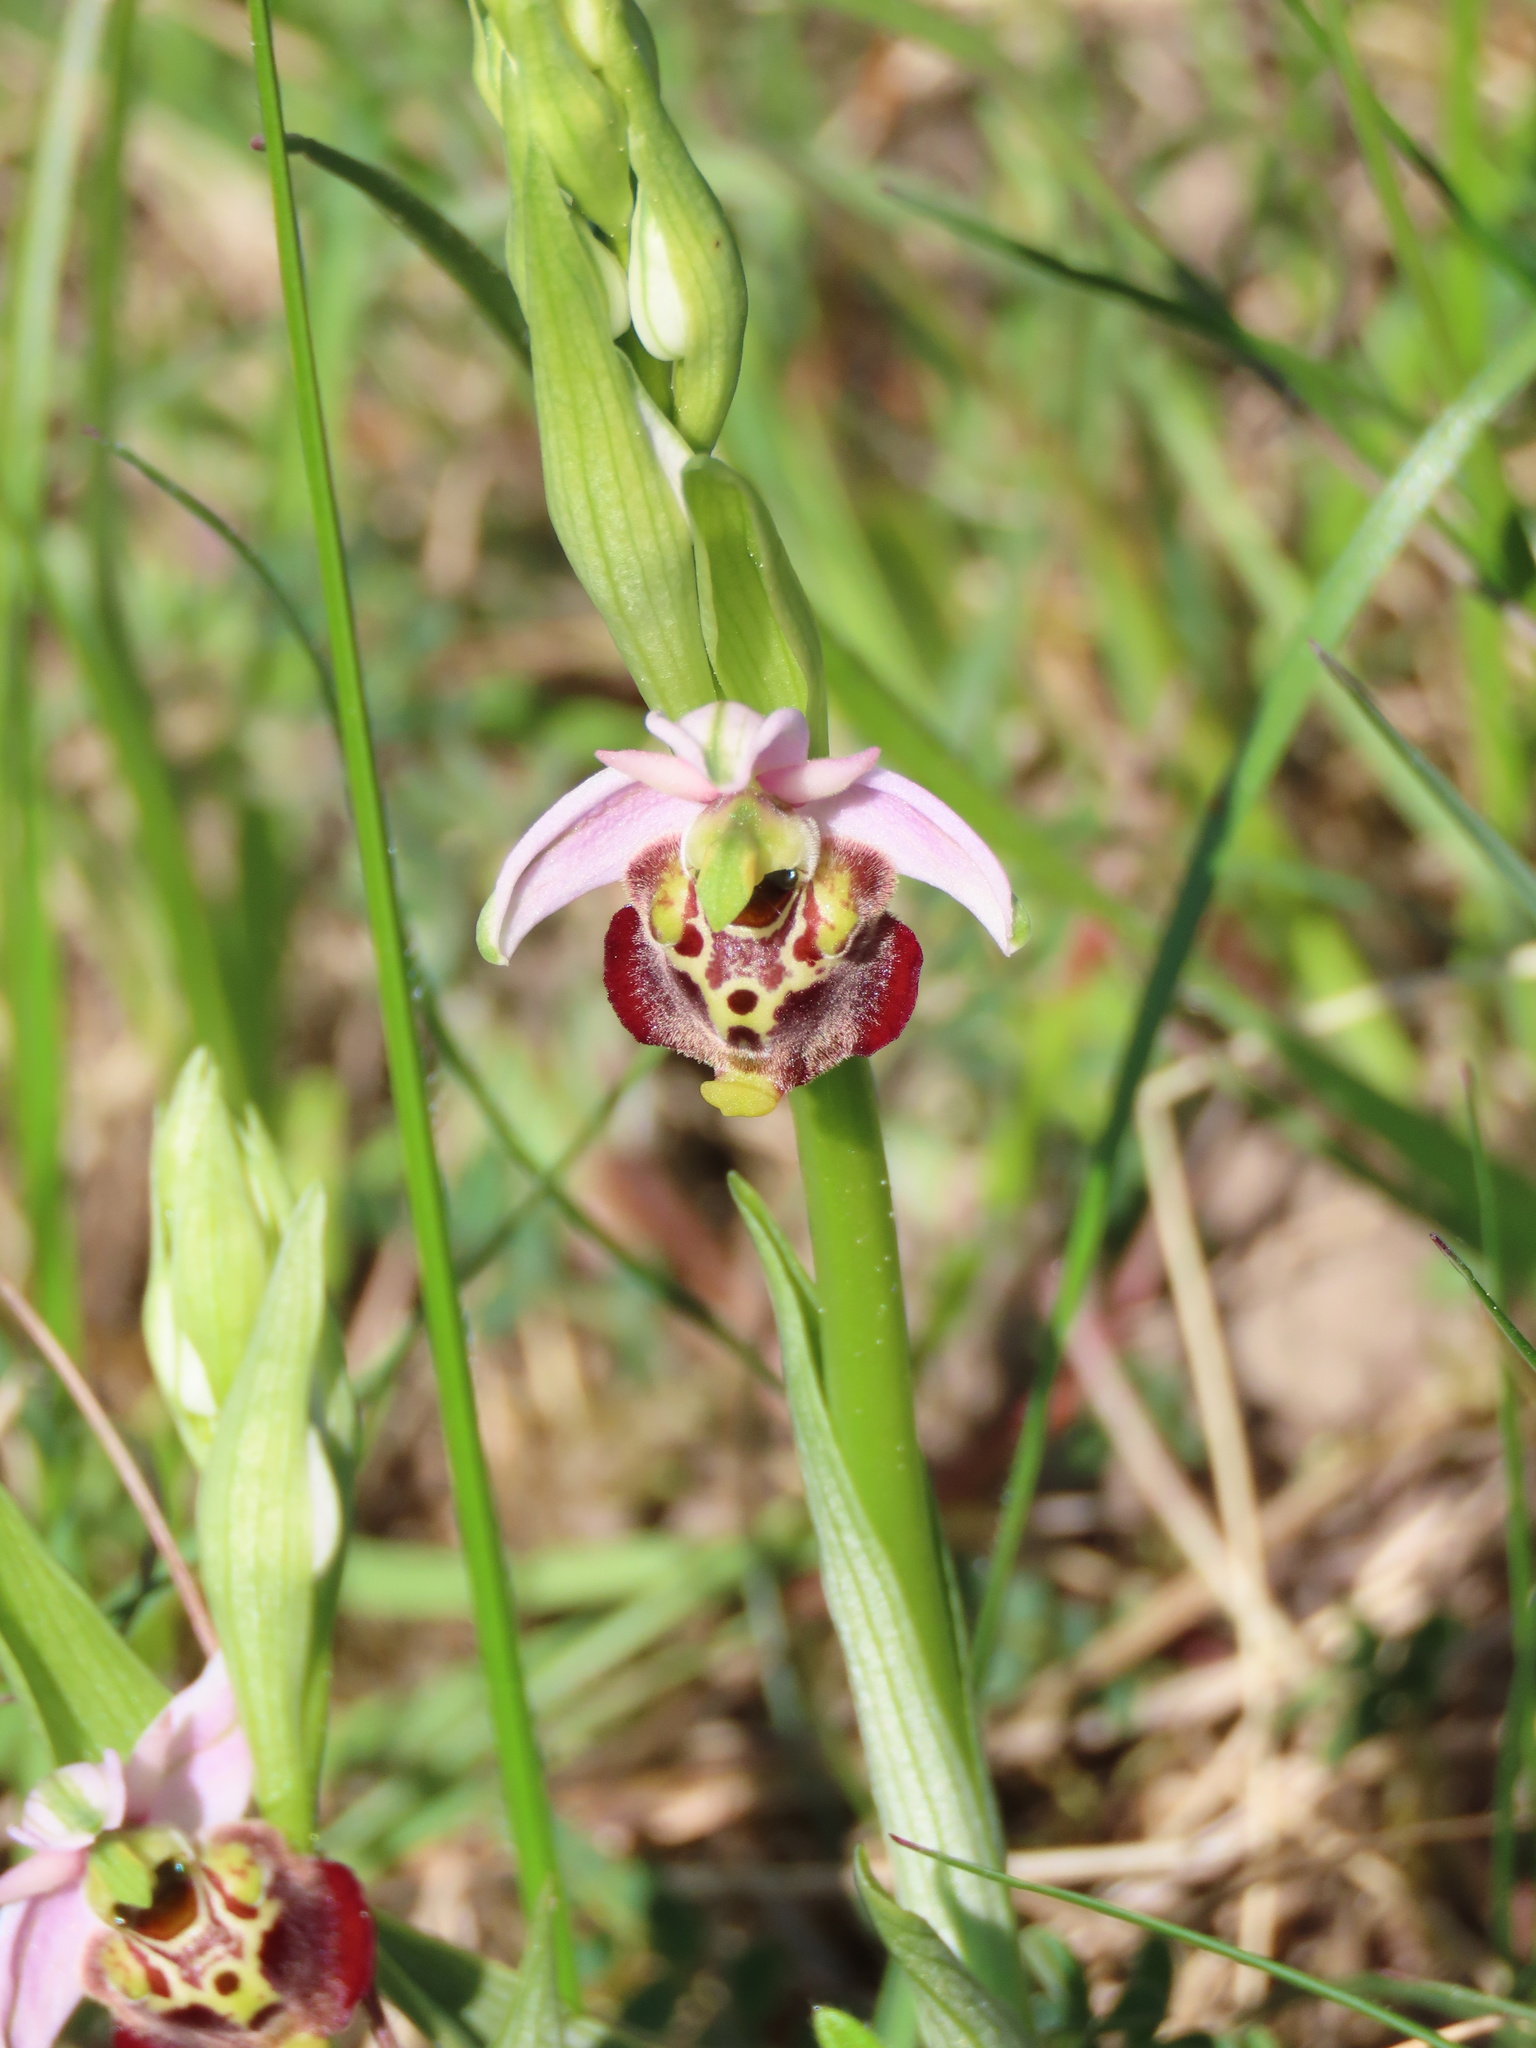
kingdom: Plantae
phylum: Tracheophyta
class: Liliopsida
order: Asparagales
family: Orchidaceae
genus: Ophrys
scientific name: Ophrys holosericea
